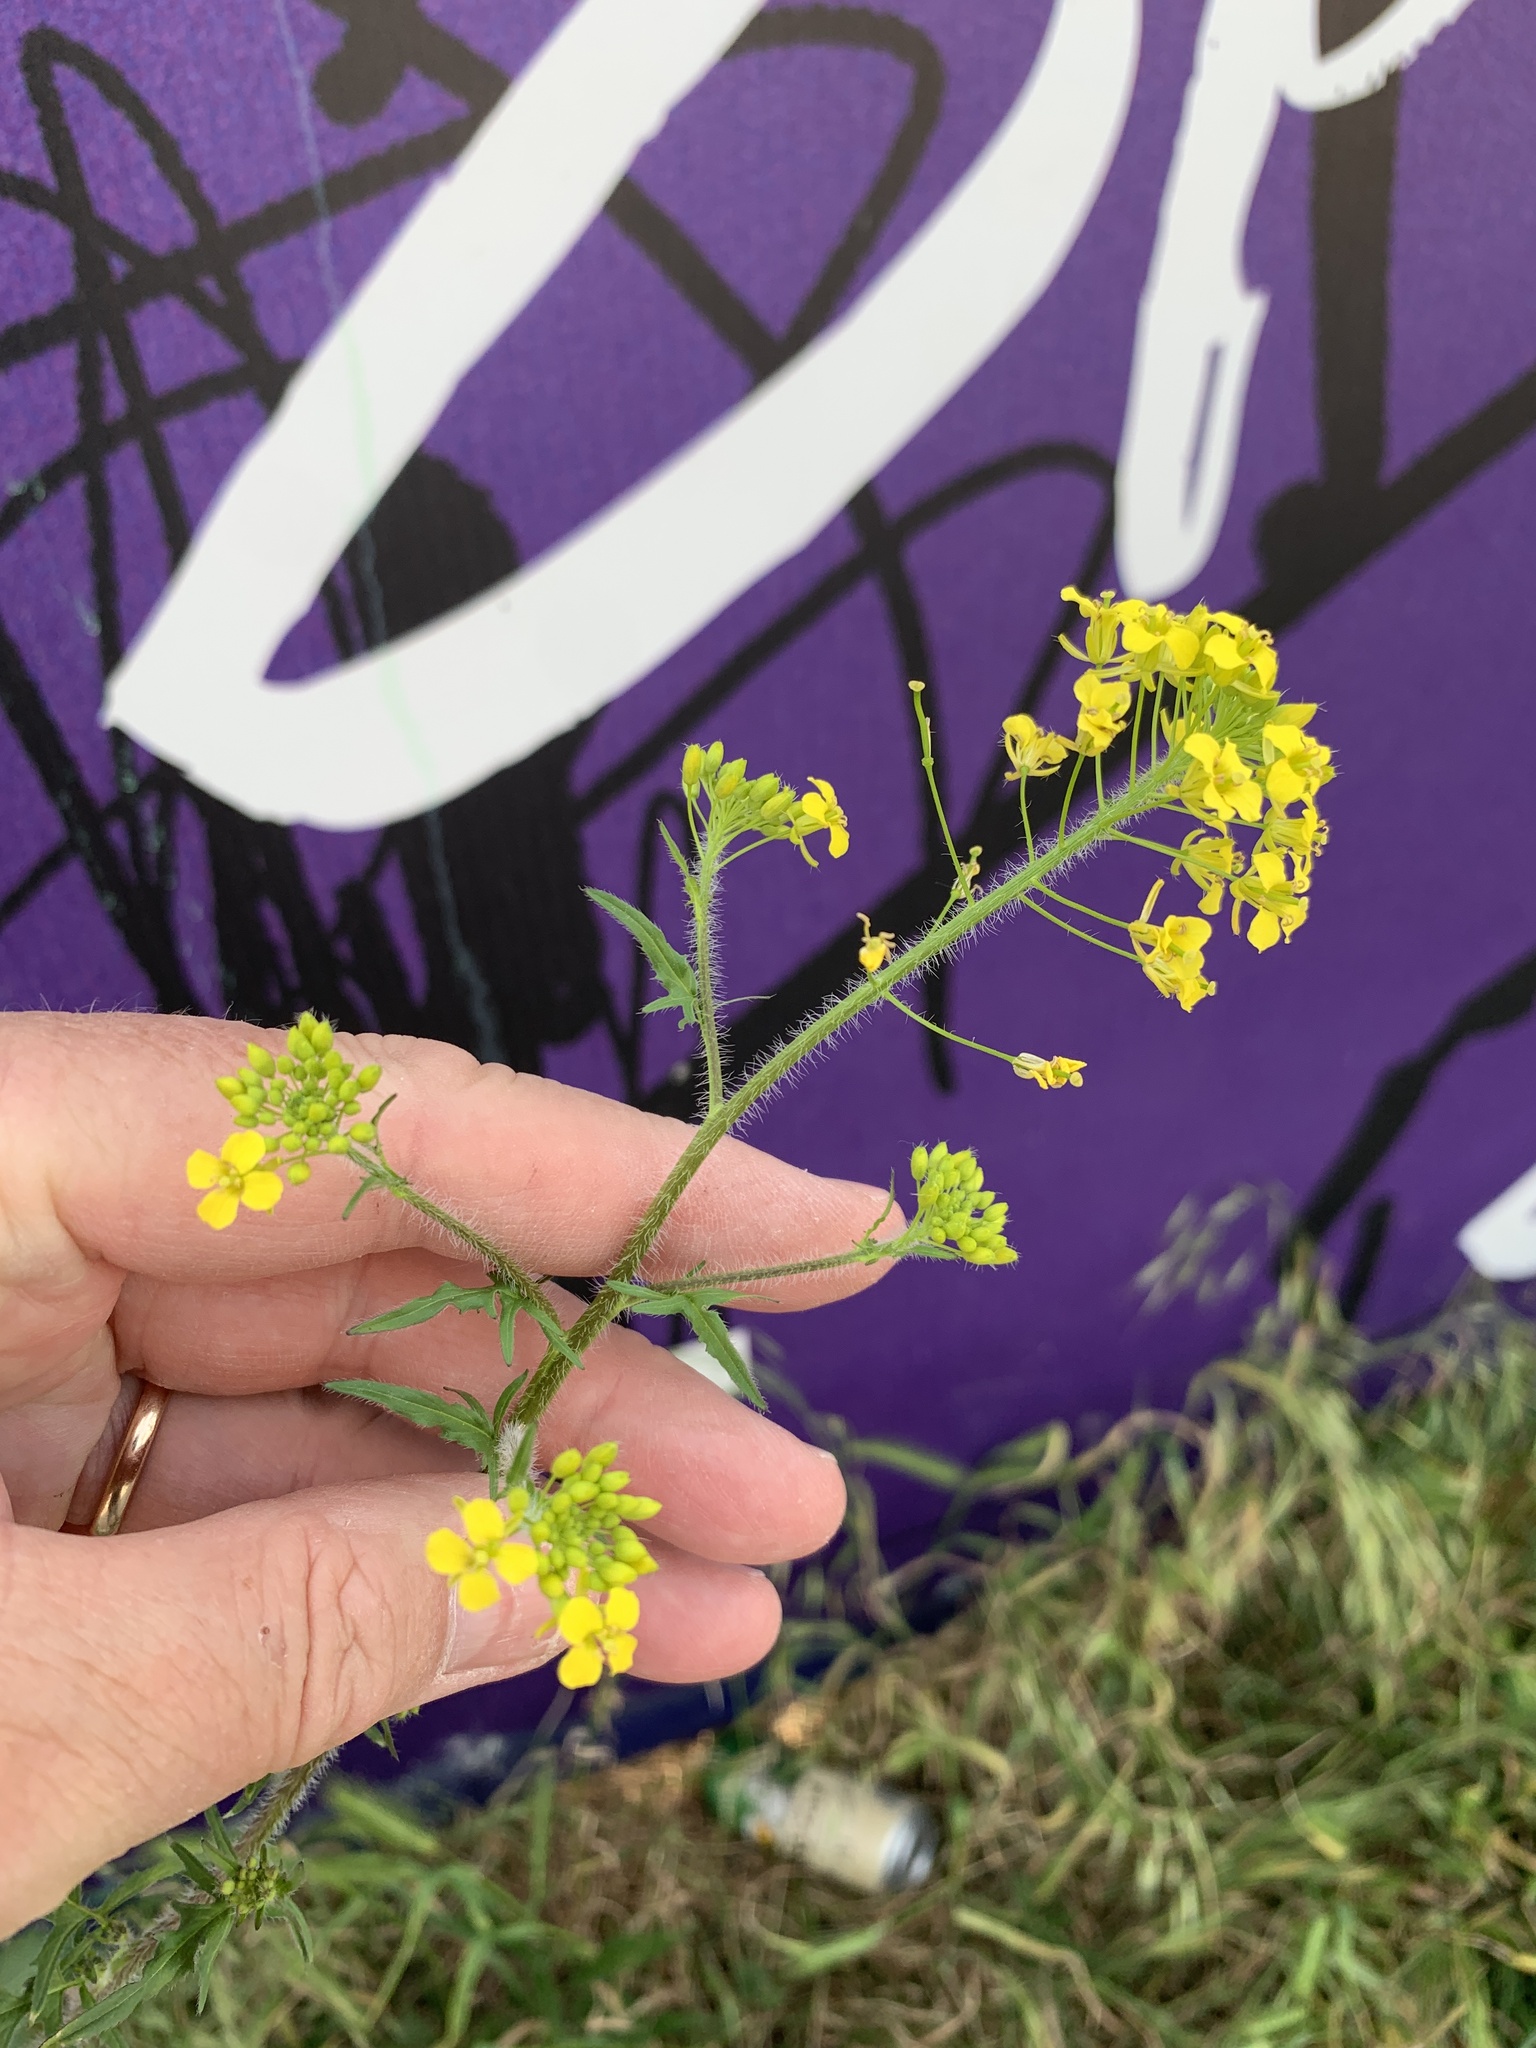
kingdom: Plantae
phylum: Tracheophyta
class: Magnoliopsida
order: Brassicales
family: Brassicaceae
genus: Sisymbrium
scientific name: Sisymbrium loeselii
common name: False london-rocket
